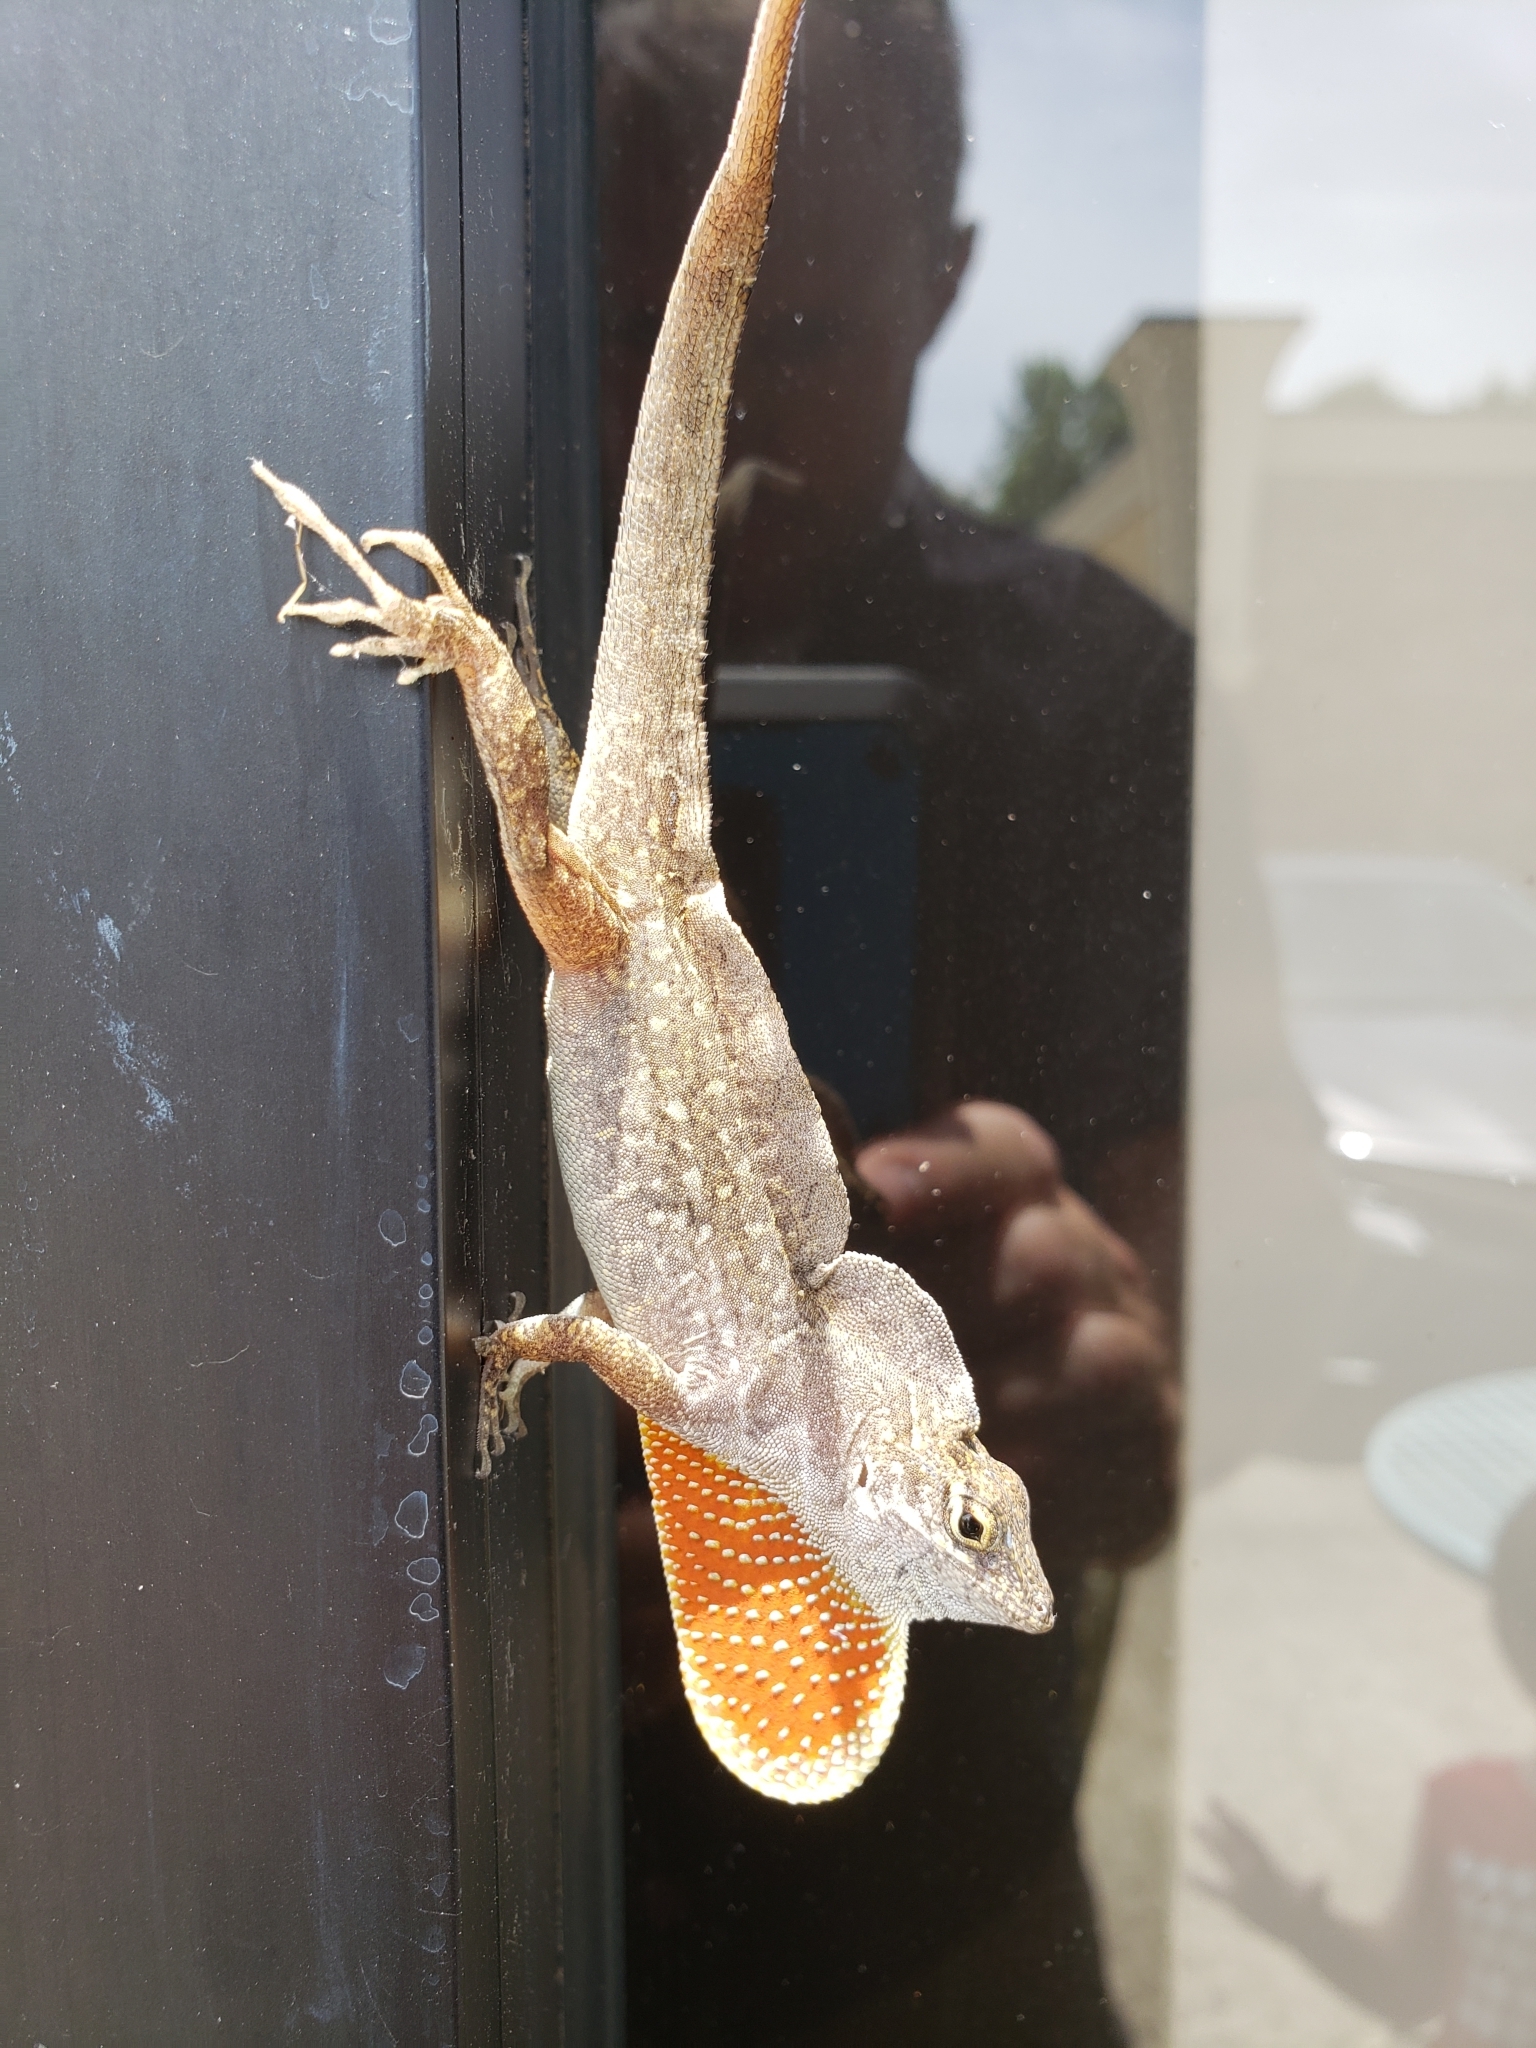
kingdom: Animalia
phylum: Chordata
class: Squamata
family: Dactyloidae
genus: Anolis
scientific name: Anolis sagrei
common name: Brown anole
